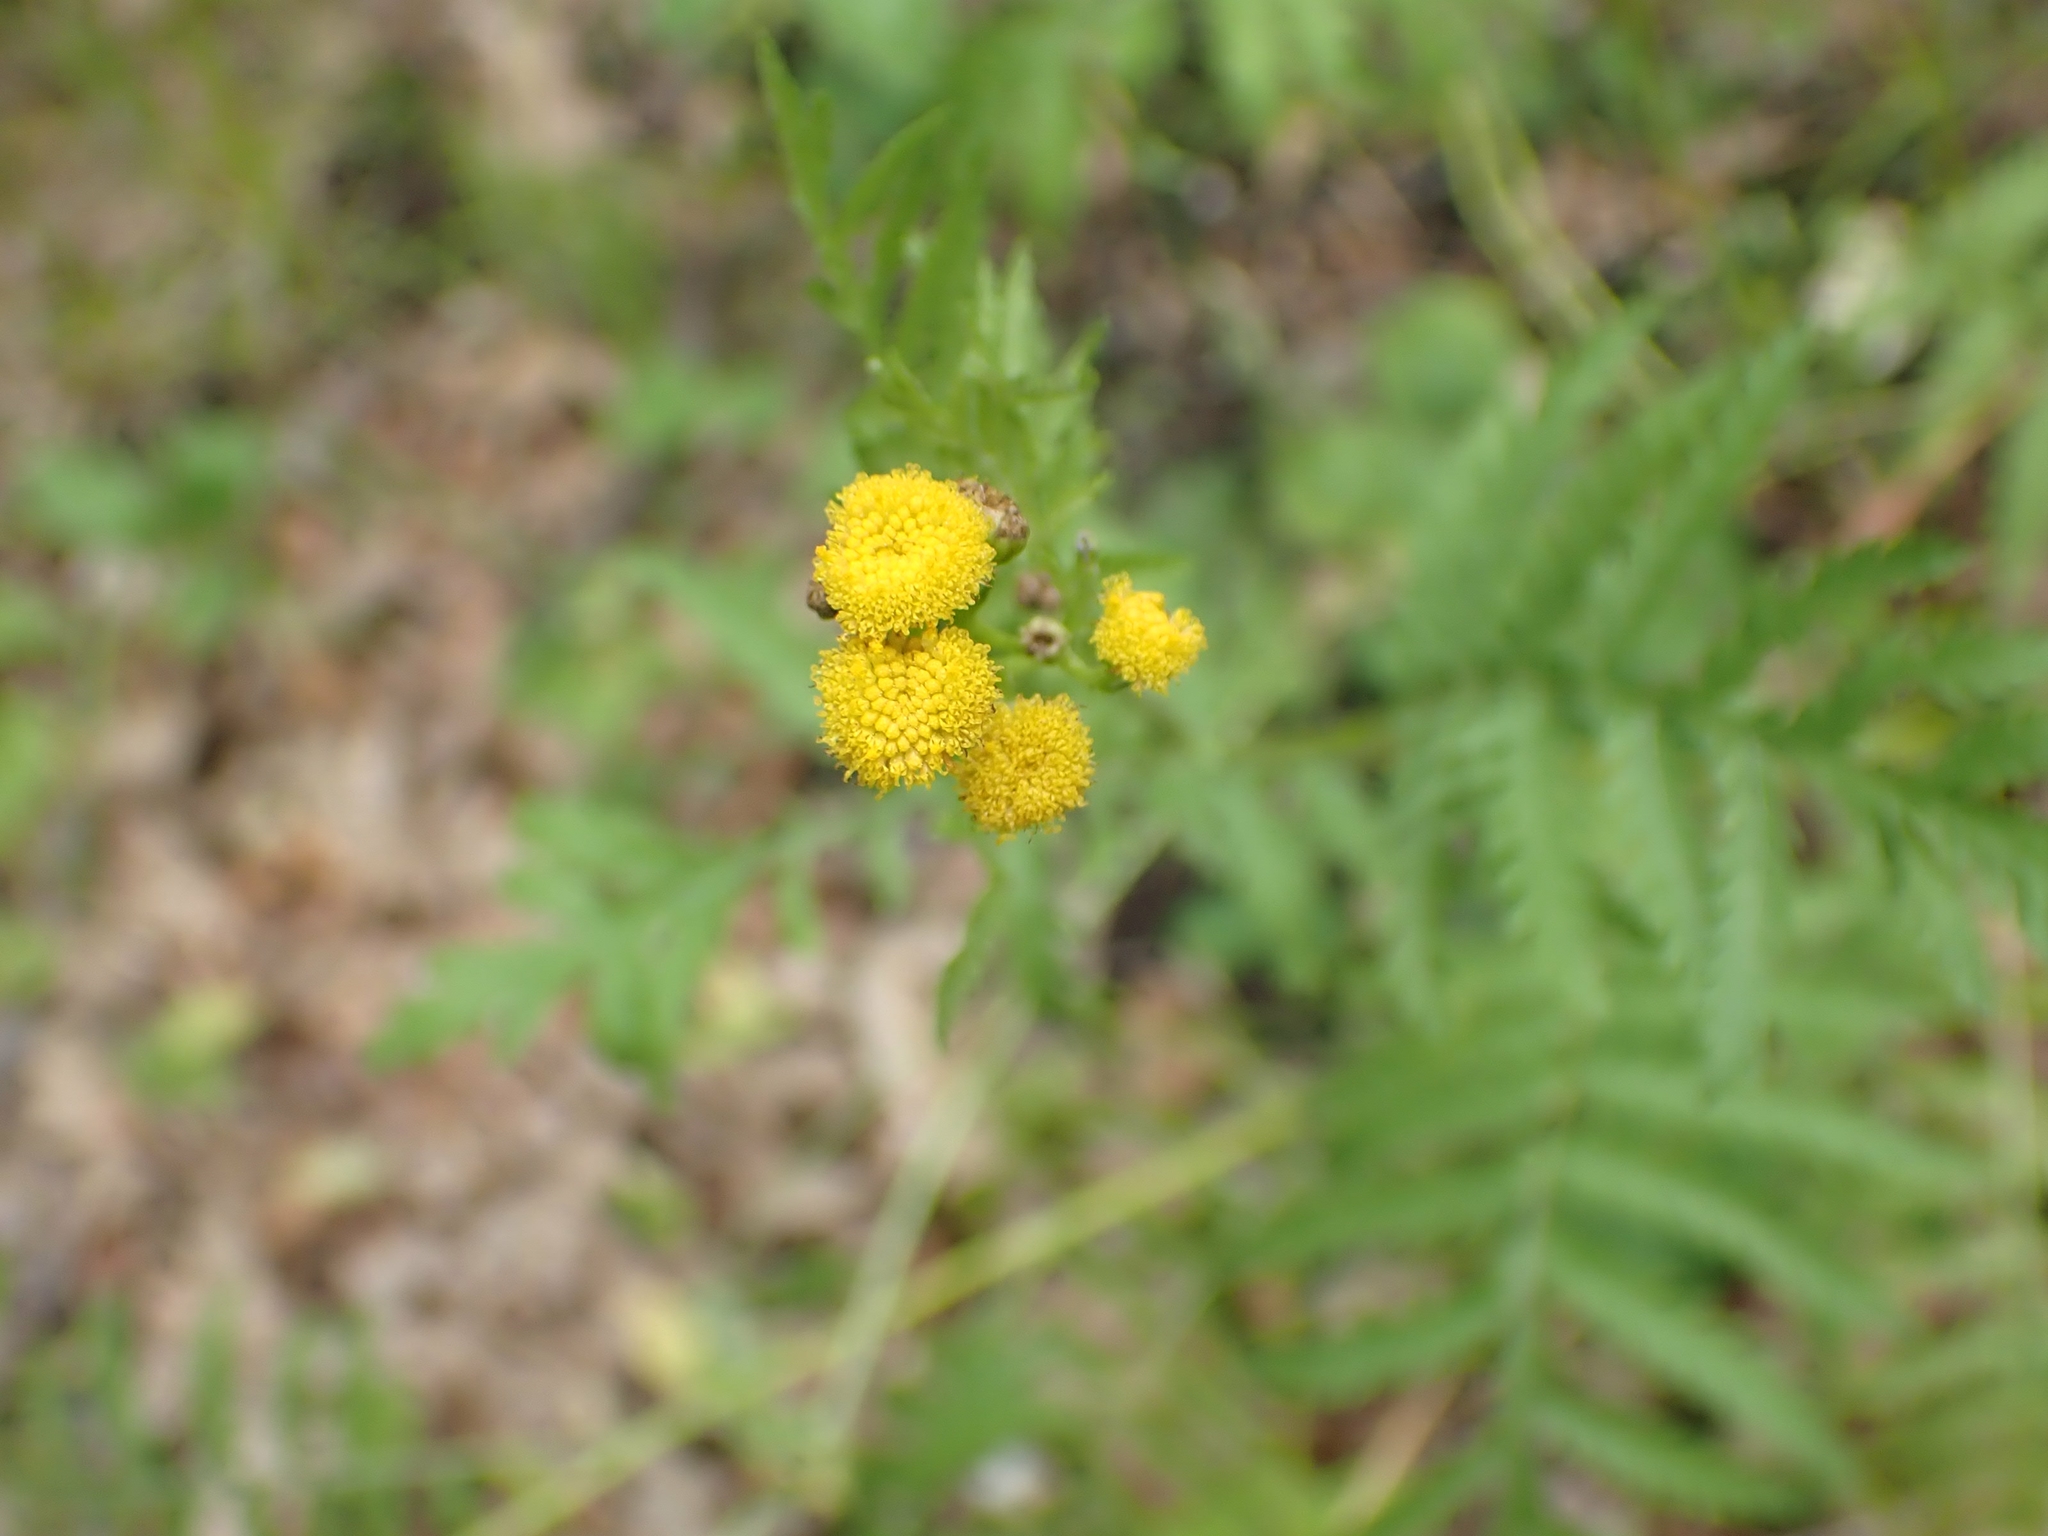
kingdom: Plantae
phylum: Tracheophyta
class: Magnoliopsida
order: Asterales
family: Asteraceae
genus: Tanacetum
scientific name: Tanacetum vulgare
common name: Common tansy
